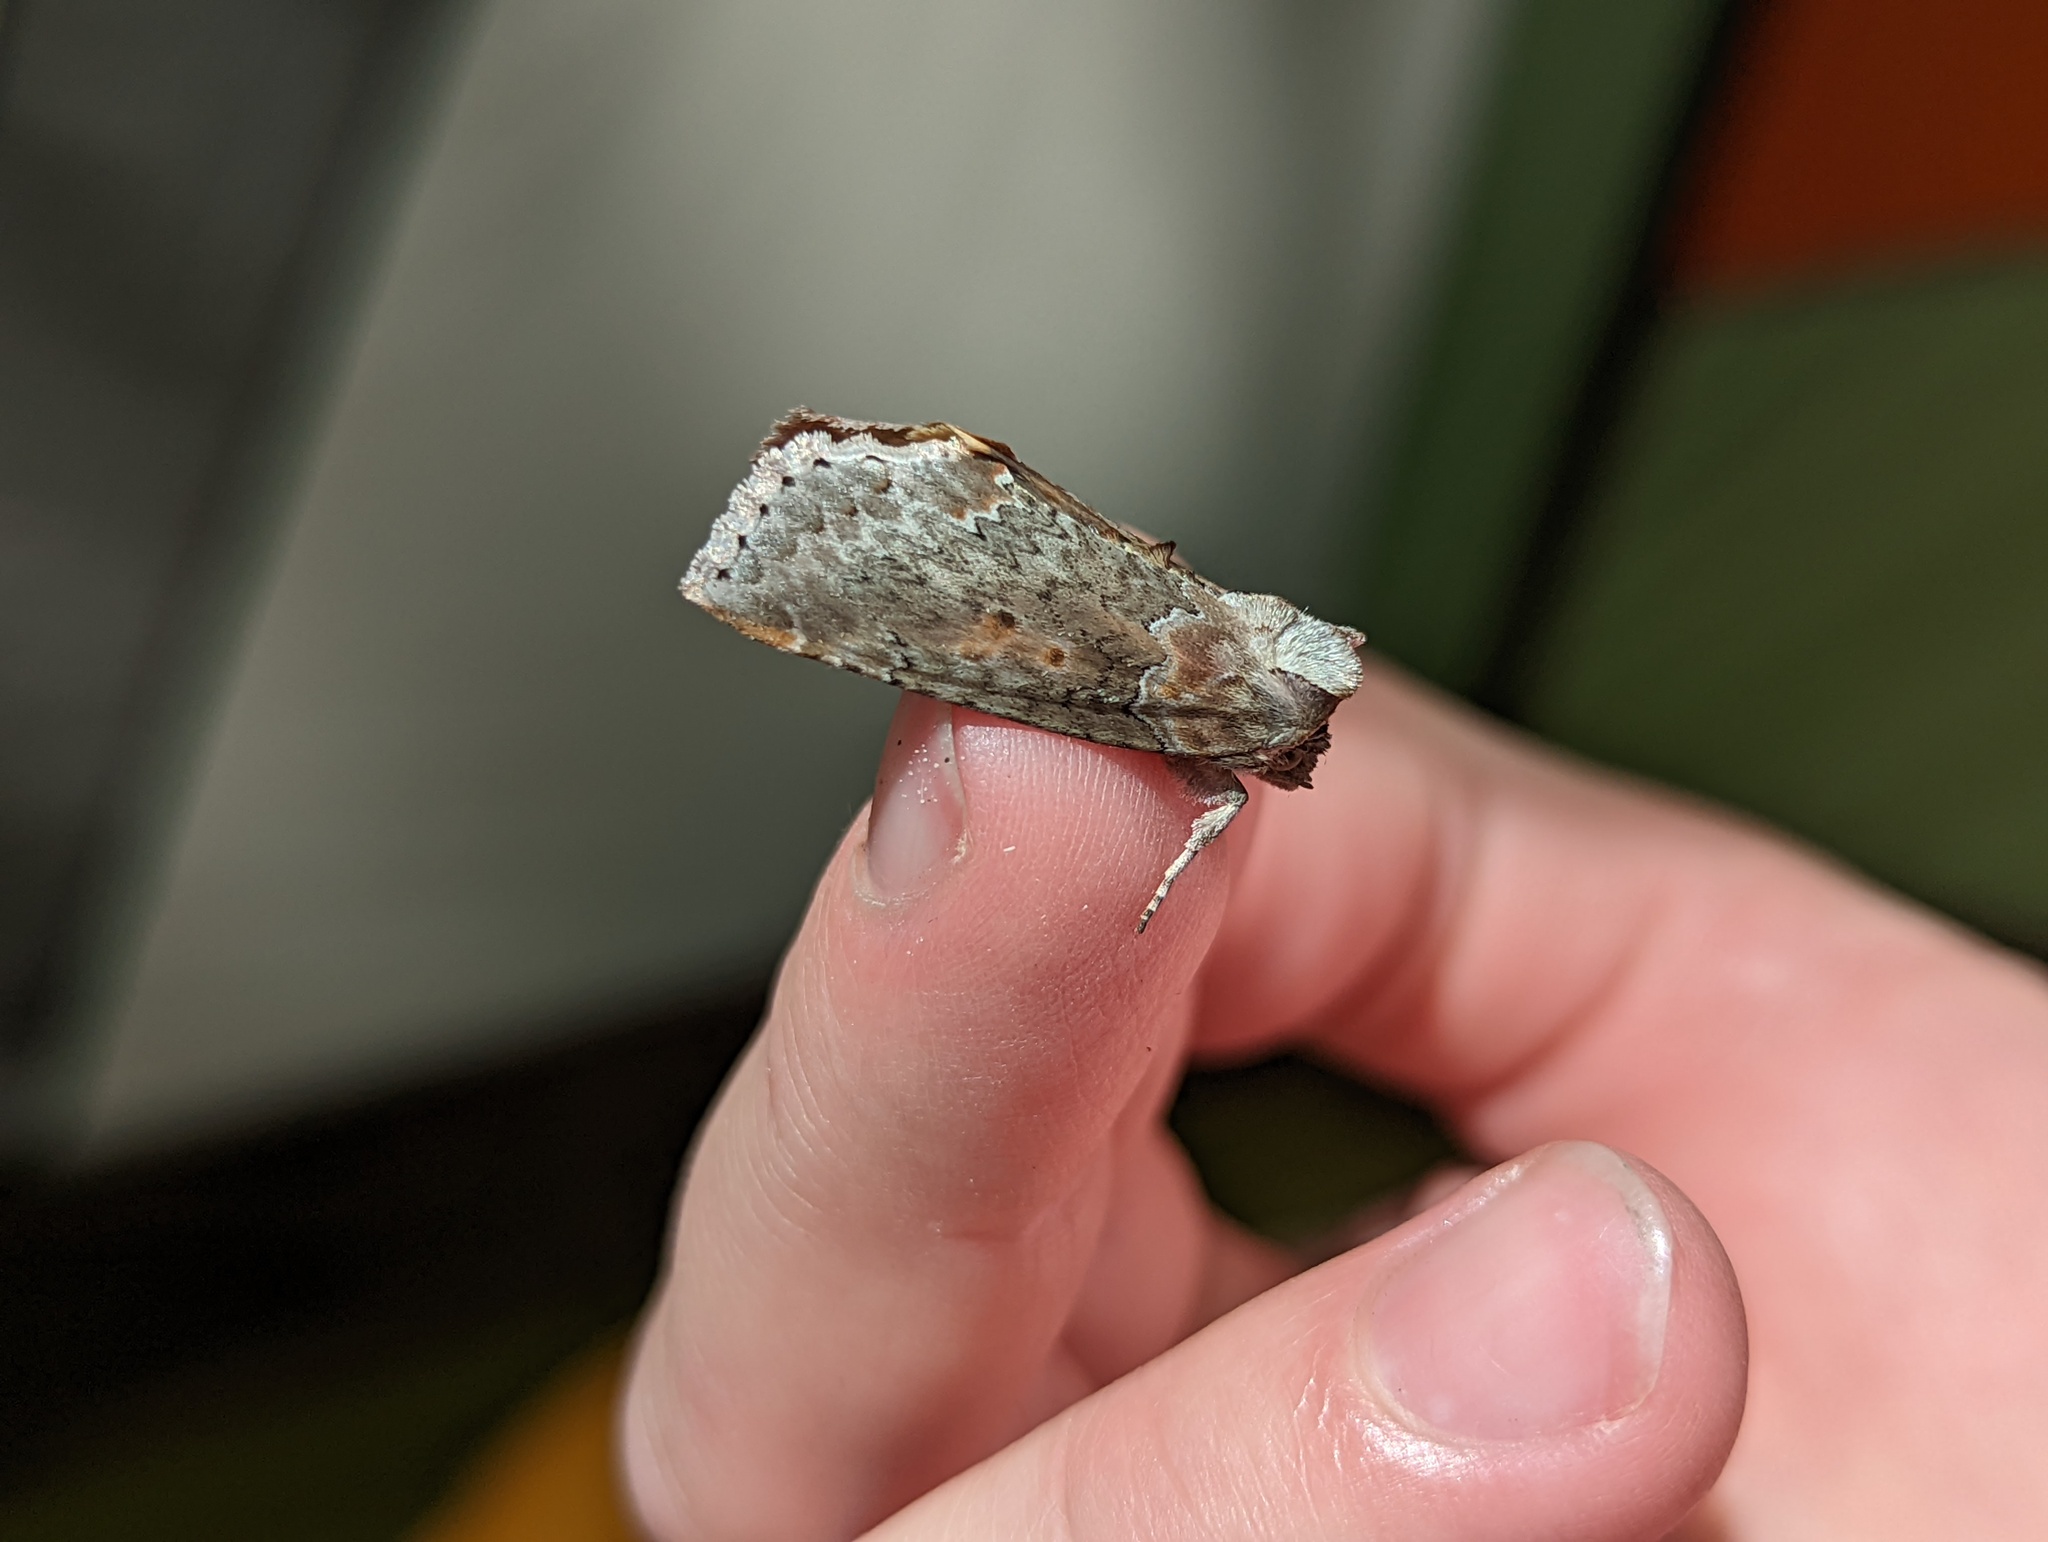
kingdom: Animalia
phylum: Arthropoda
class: Insecta
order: Lepidoptera
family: Drepanidae
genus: Pseudothyatira
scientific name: Pseudothyatira cymatophoroides
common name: Tufted thyatirid moth
